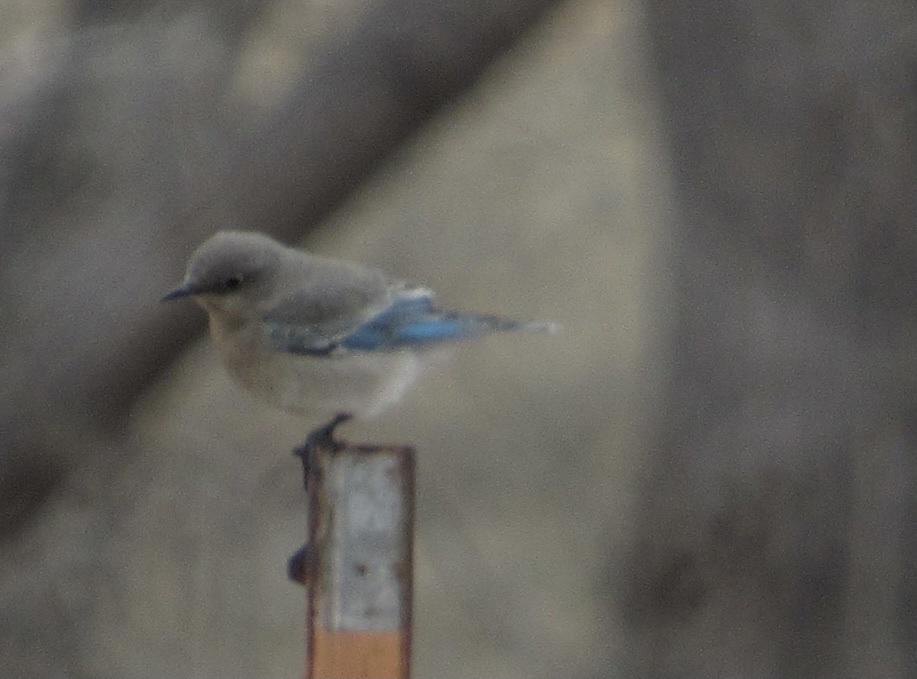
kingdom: Animalia
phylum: Chordata
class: Aves
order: Passeriformes
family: Turdidae
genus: Sialia
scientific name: Sialia currucoides
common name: Mountain bluebird
